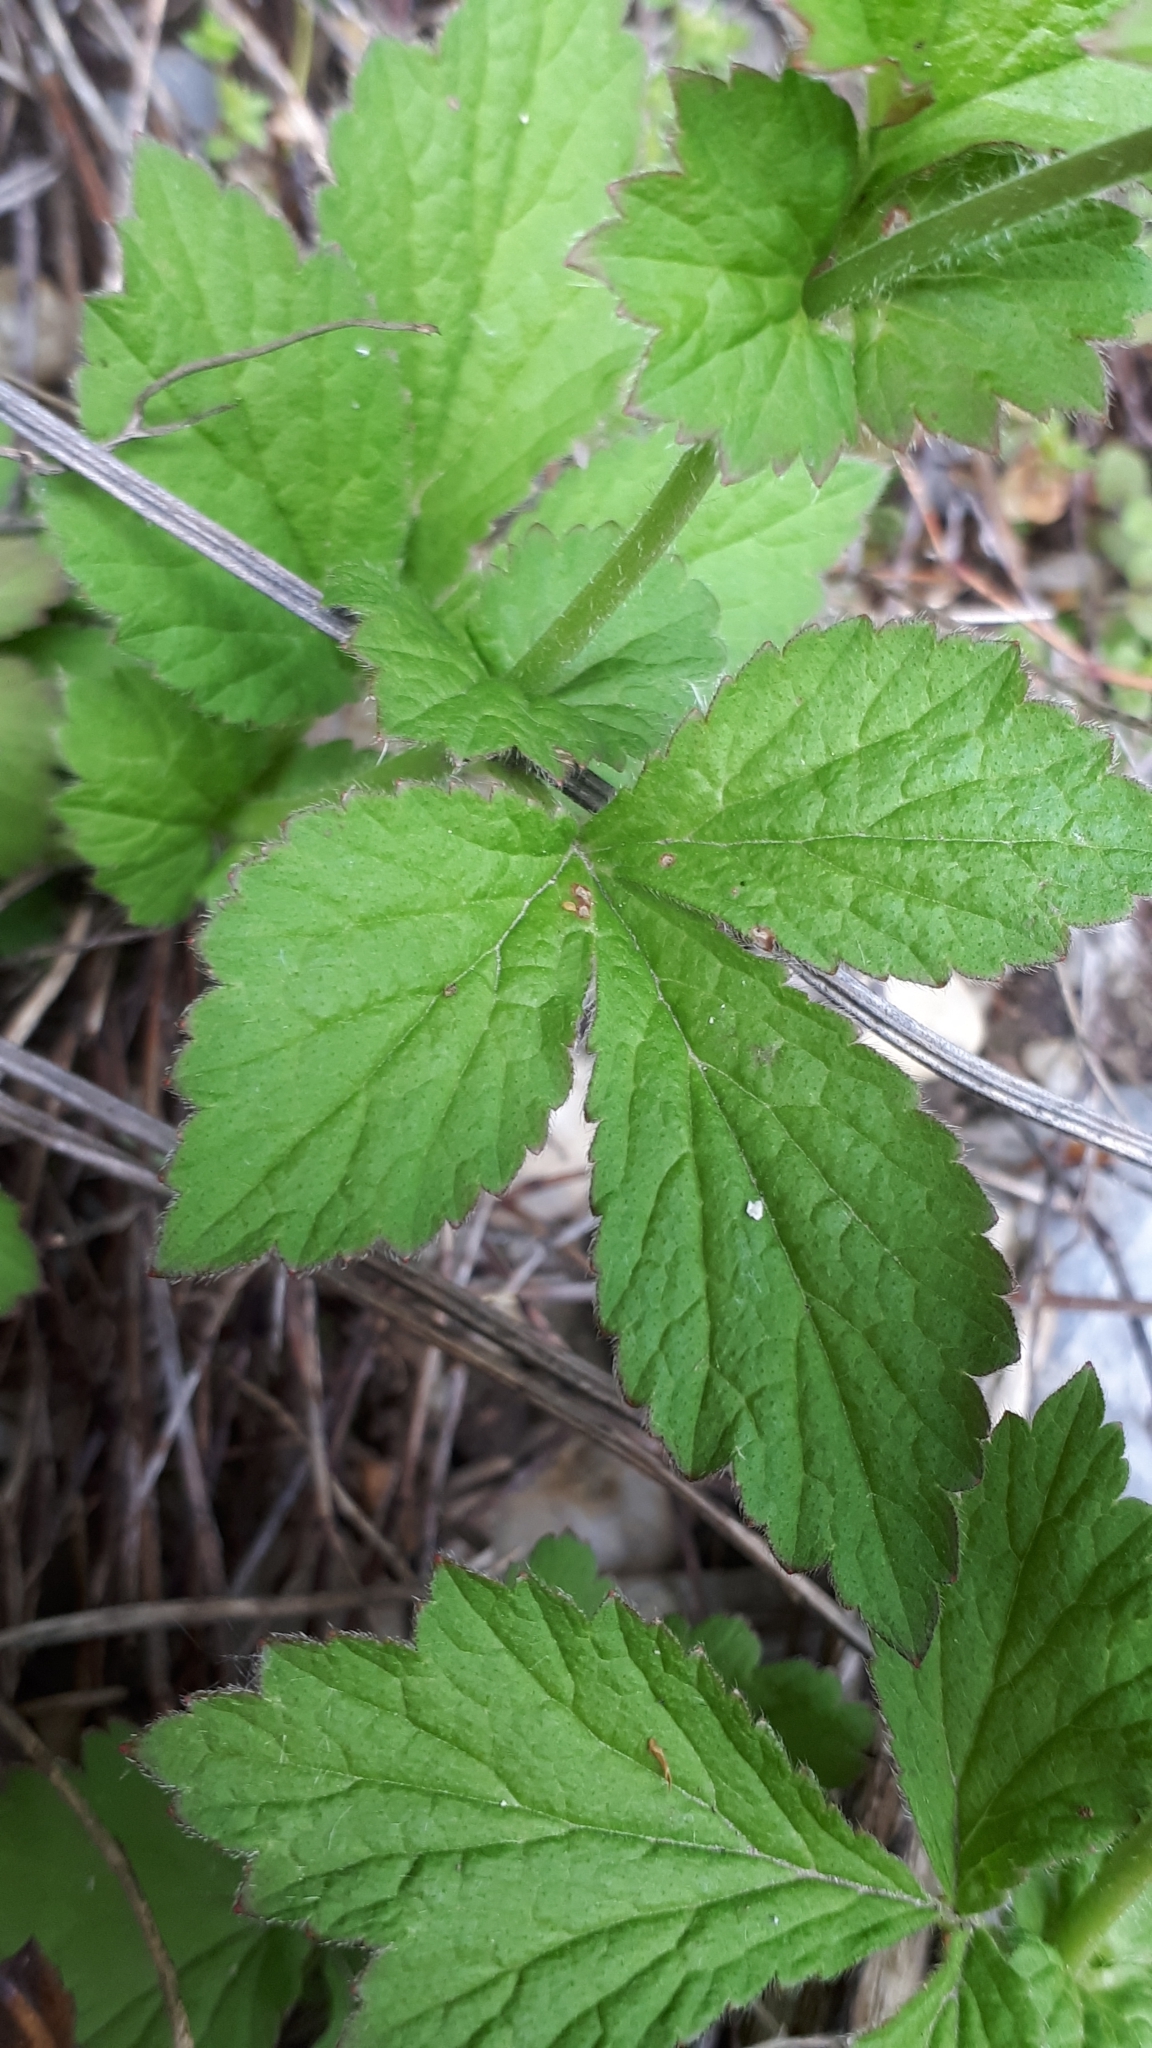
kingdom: Plantae
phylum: Tracheophyta
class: Magnoliopsida
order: Rosales
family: Rosaceae
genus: Geum
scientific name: Geum urbanum
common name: Wood avens
